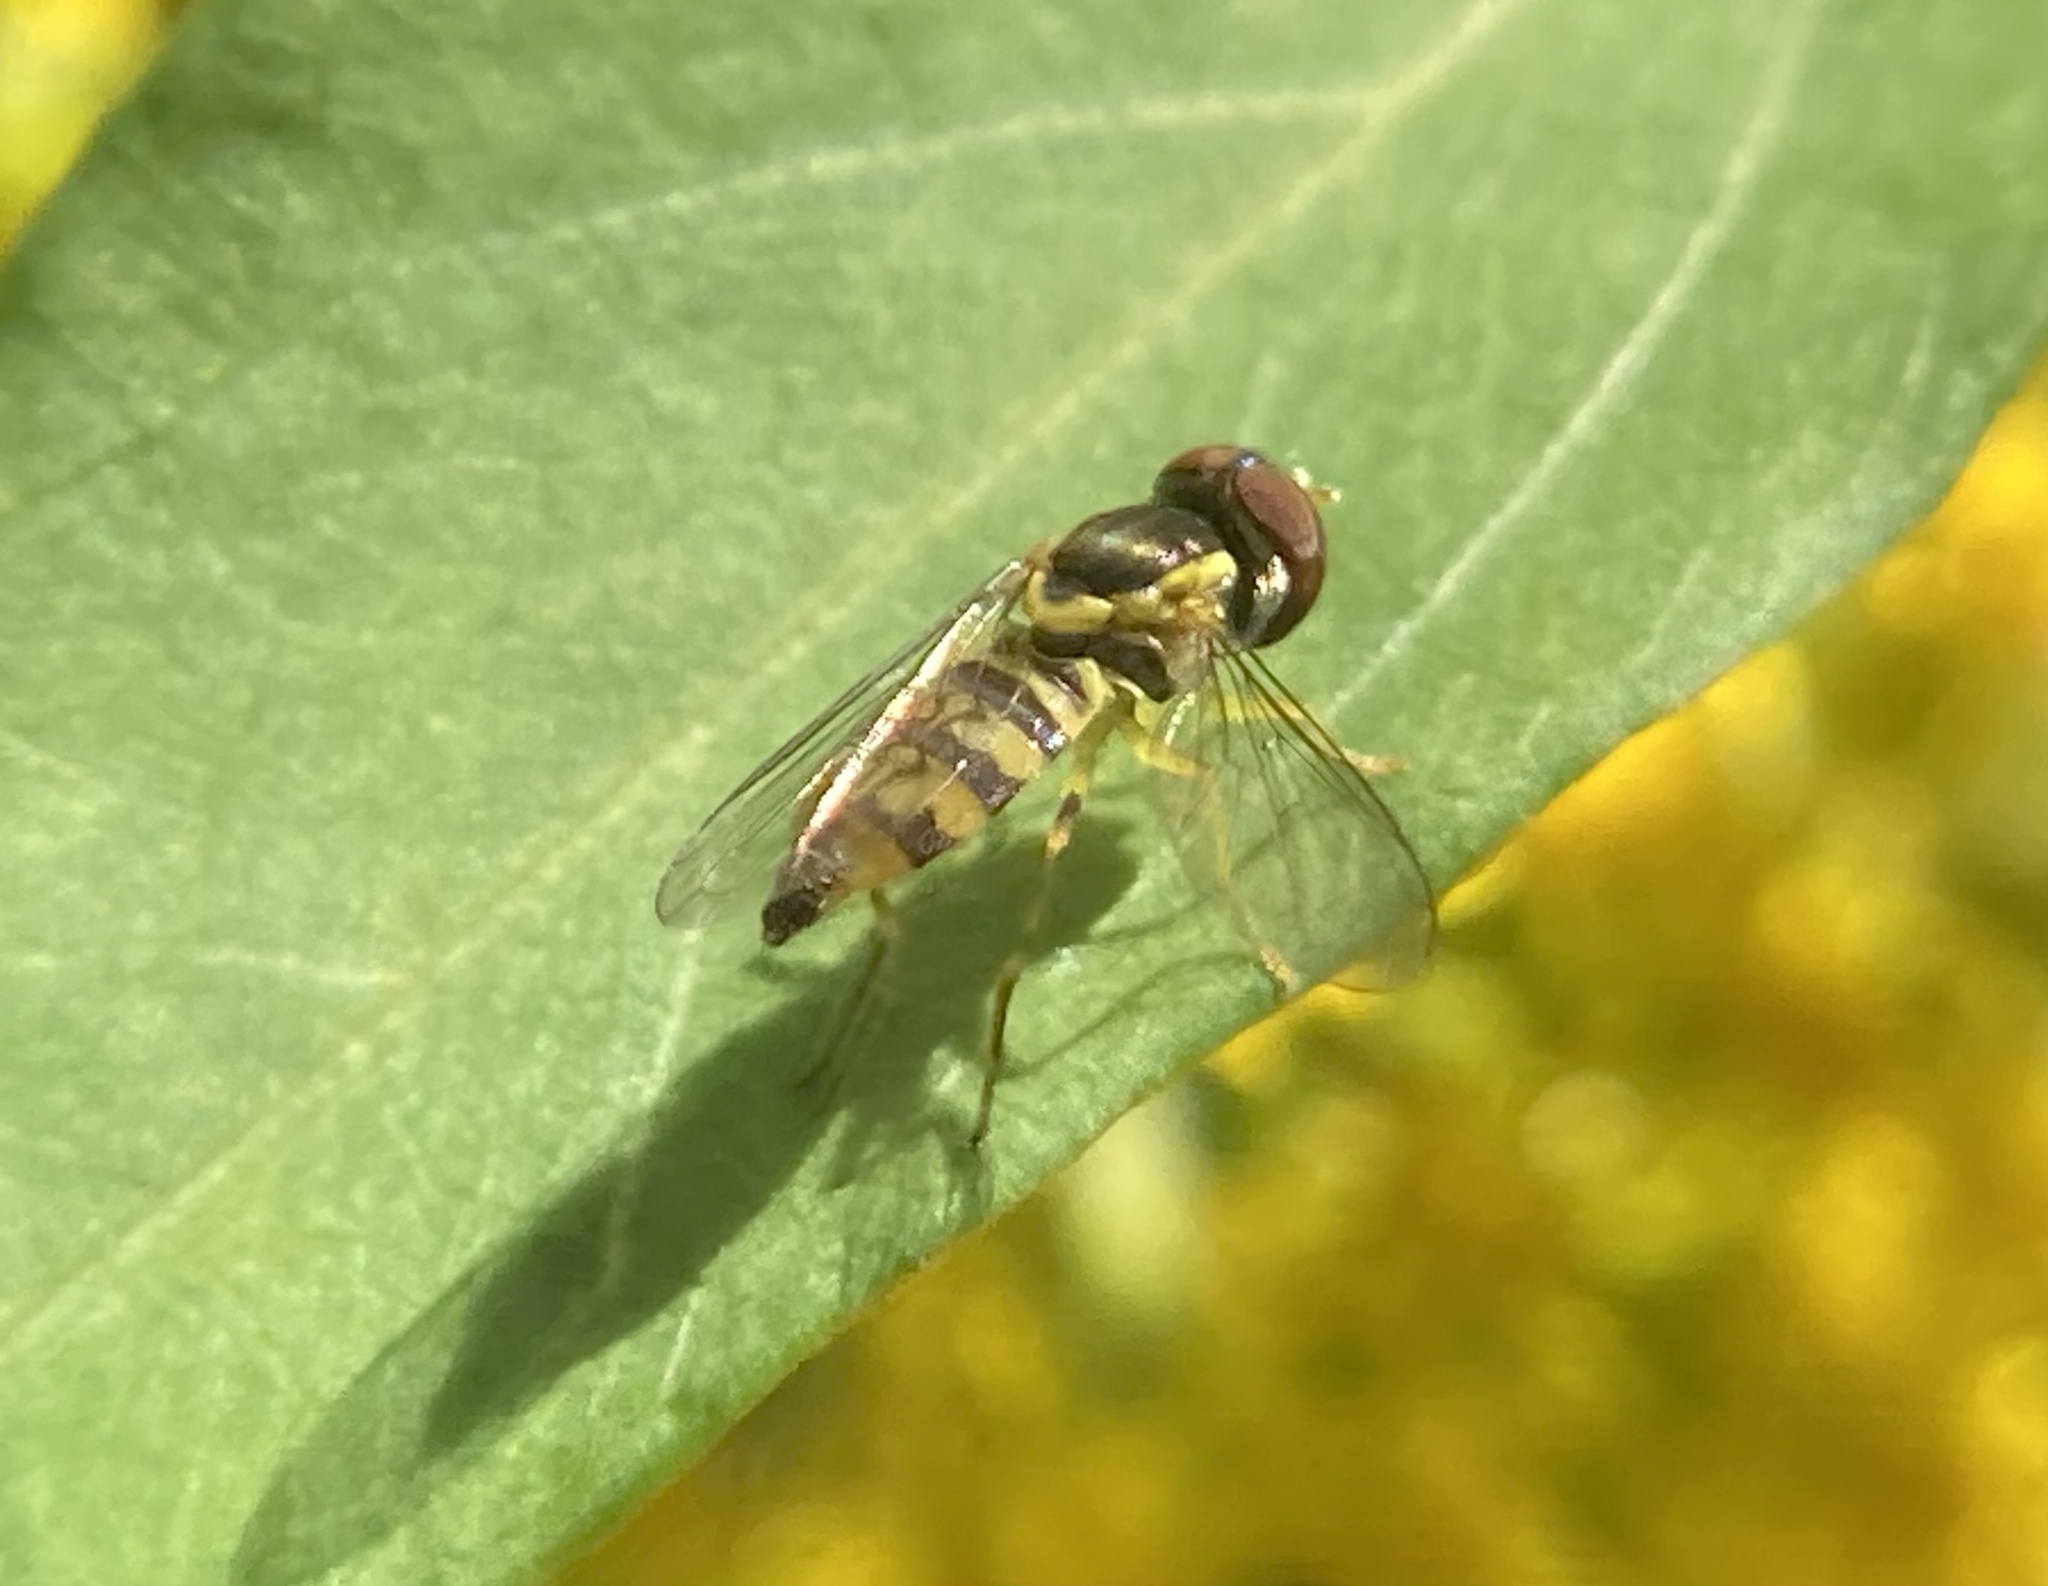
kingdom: Animalia
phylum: Arthropoda
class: Insecta
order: Diptera
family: Syrphidae
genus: Toxomerus
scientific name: Toxomerus geminatus
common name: Eastern calligrapher
